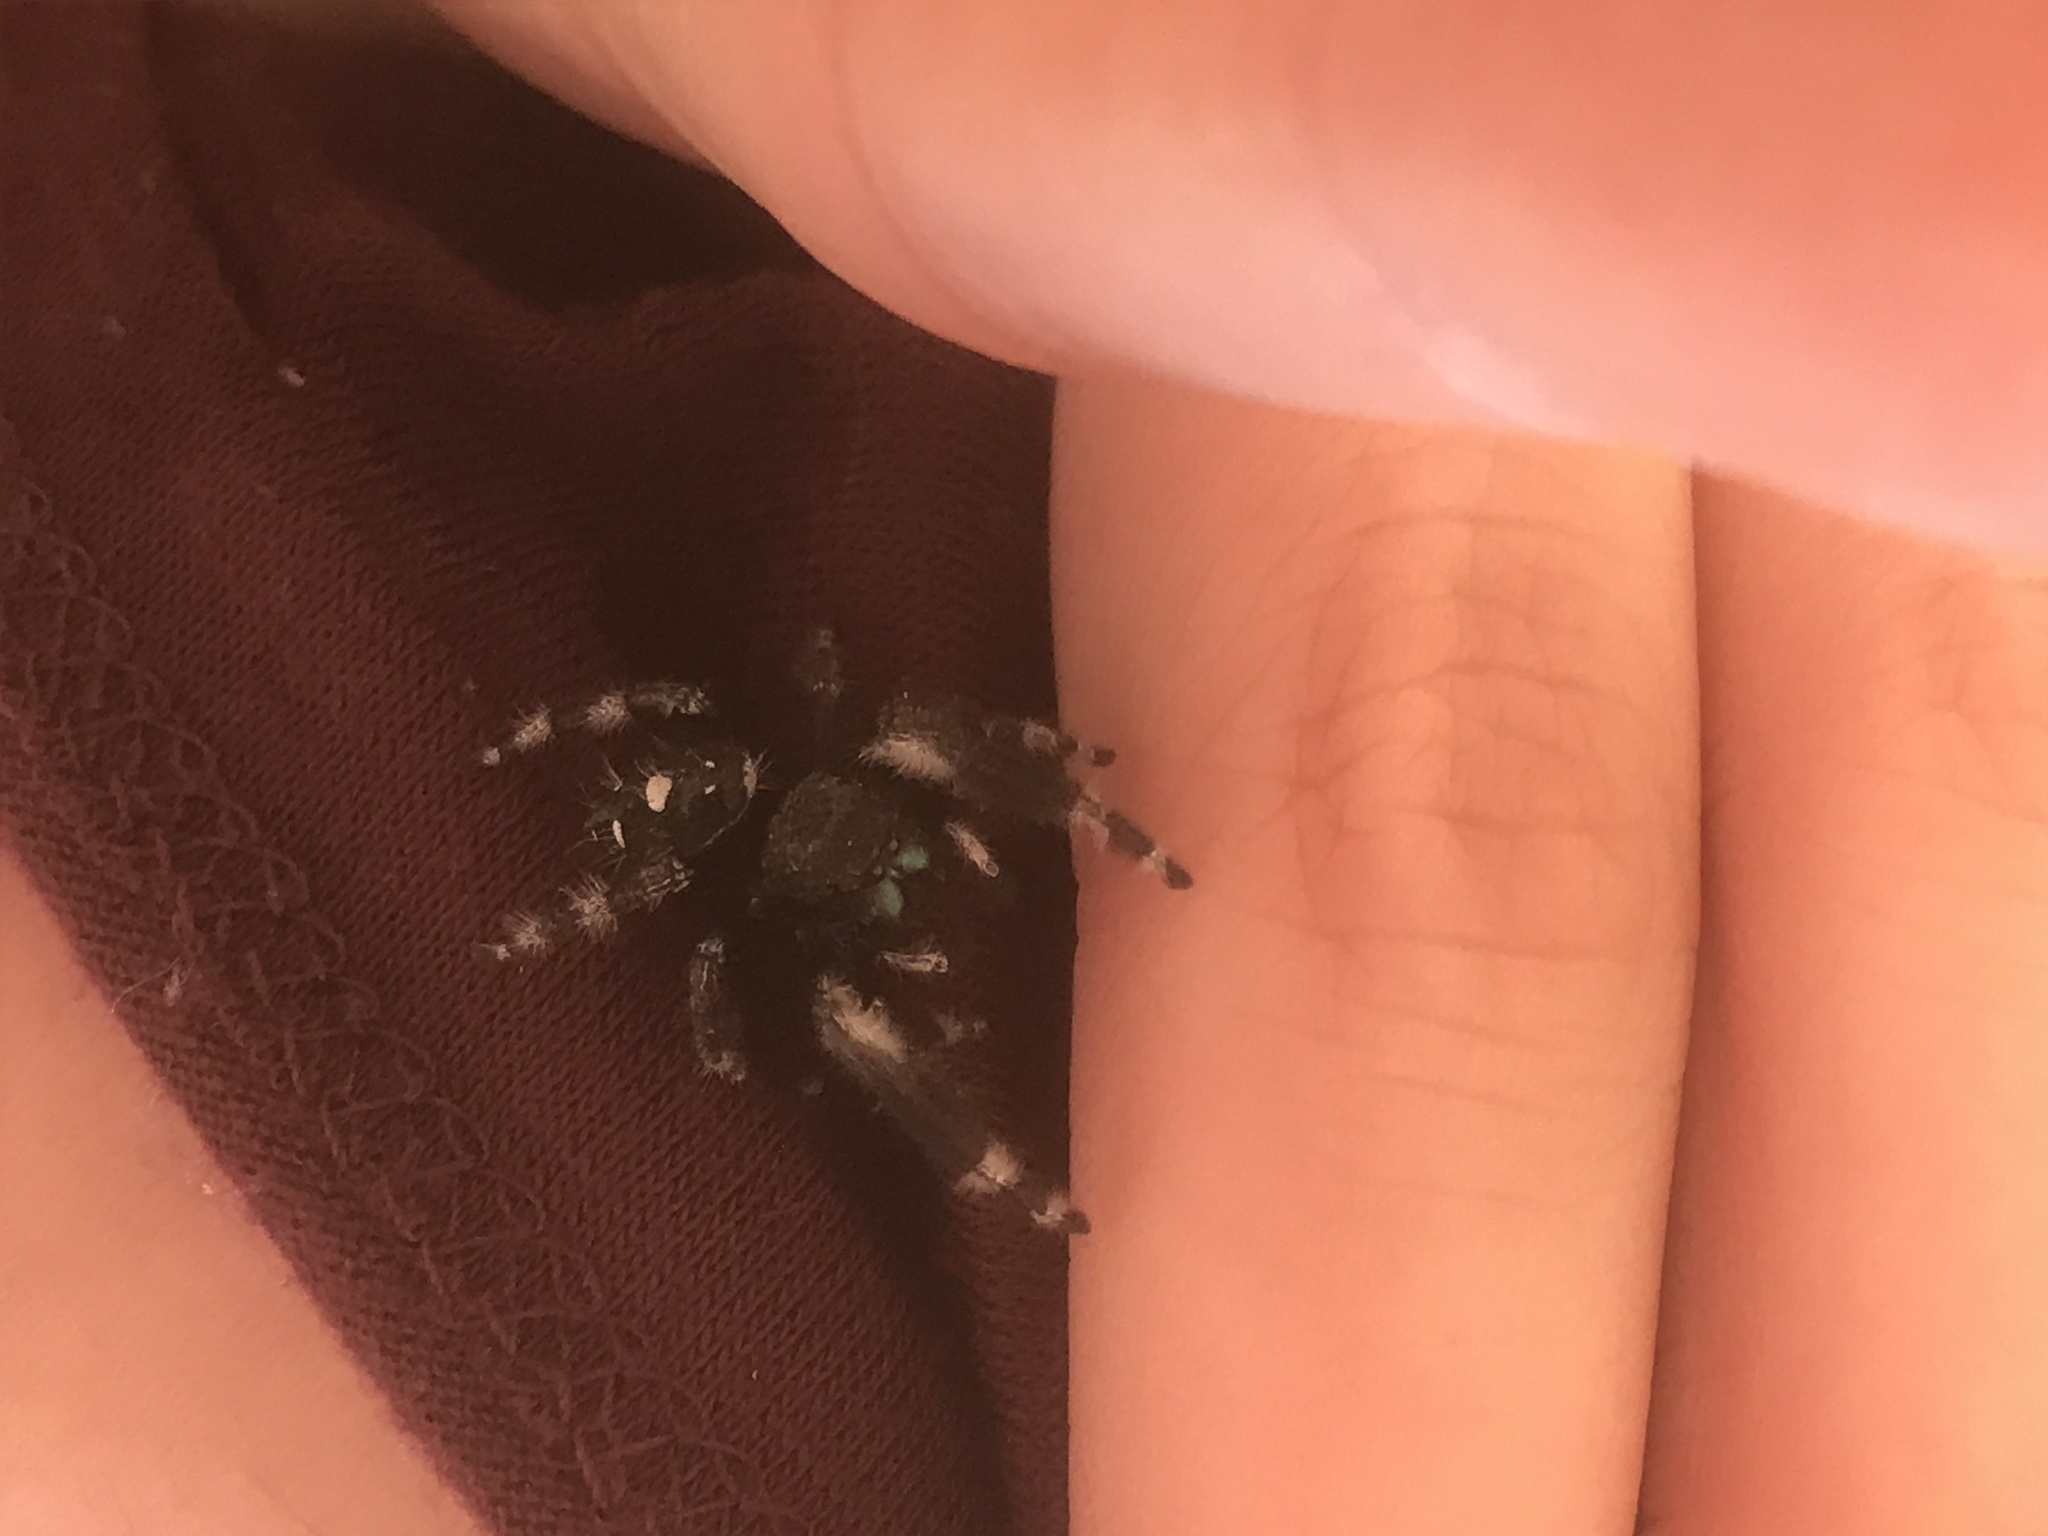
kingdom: Animalia
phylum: Arthropoda
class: Arachnida
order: Araneae
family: Salticidae
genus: Phidippus
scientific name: Phidippus audax
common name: Bold jumper
